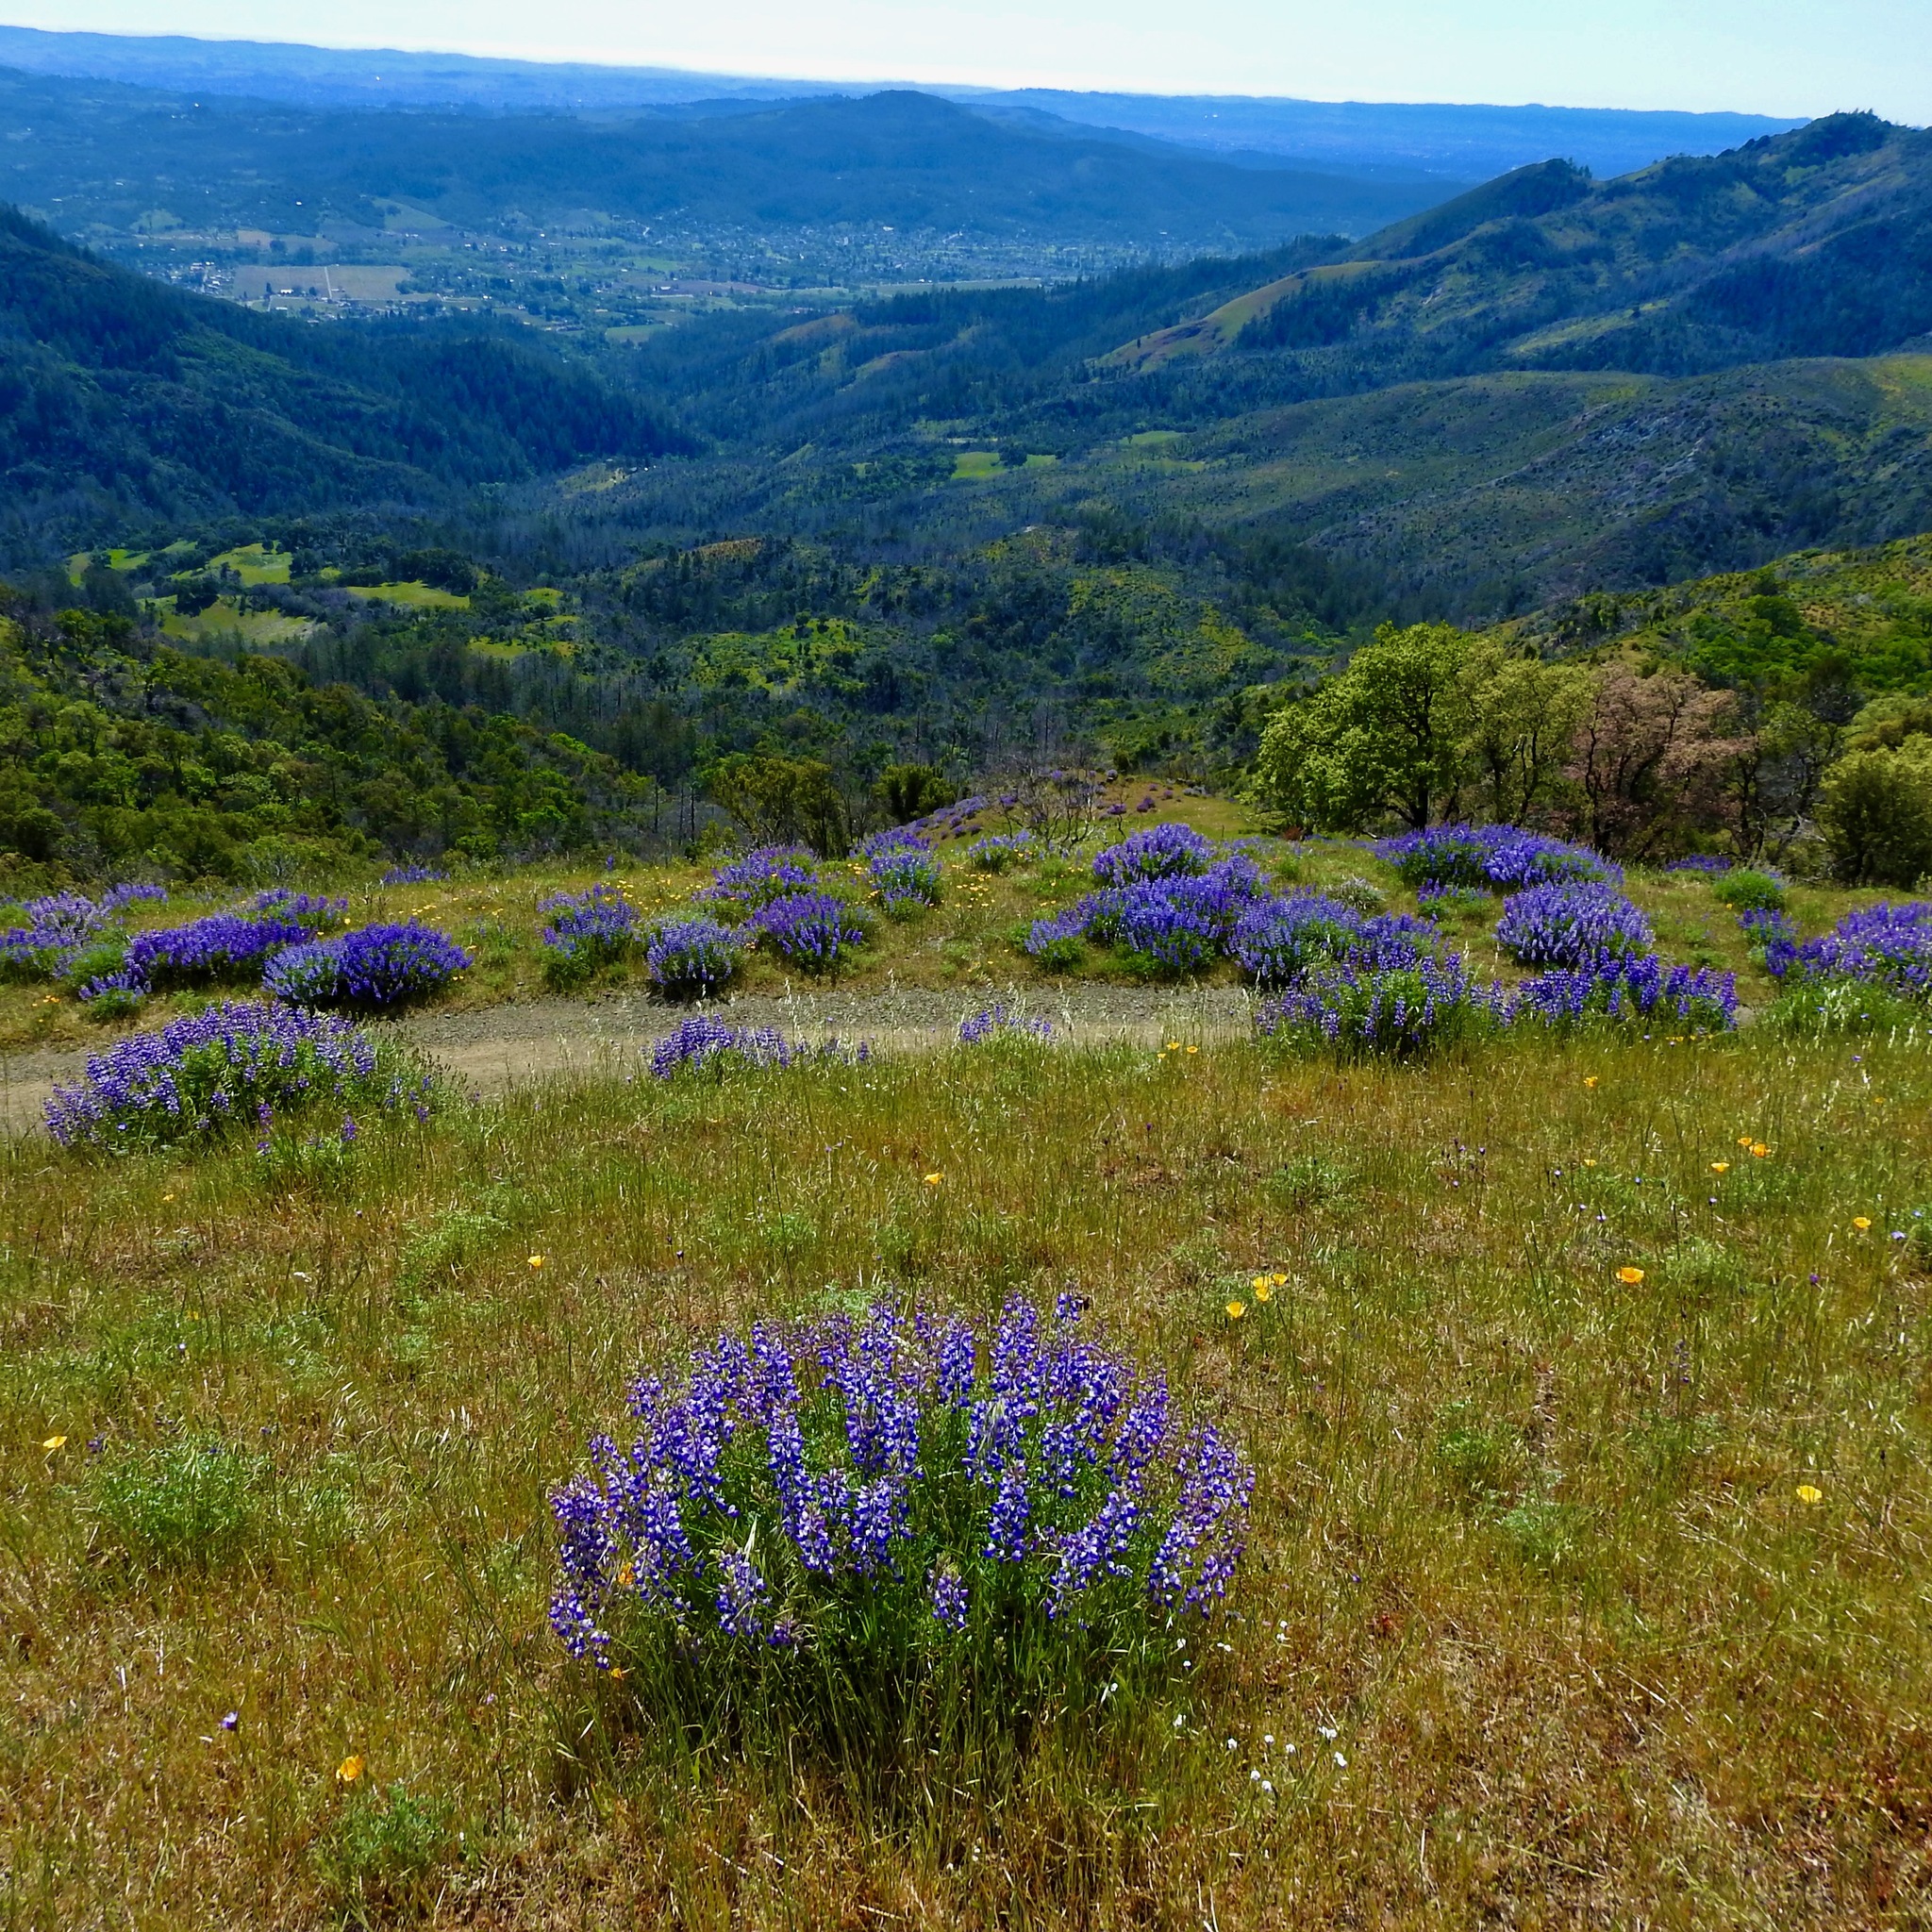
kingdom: Plantae
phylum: Tracheophyta
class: Magnoliopsida
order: Fabales
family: Fabaceae
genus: Lupinus
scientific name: Lupinus albifrons
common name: Foothill lupine
